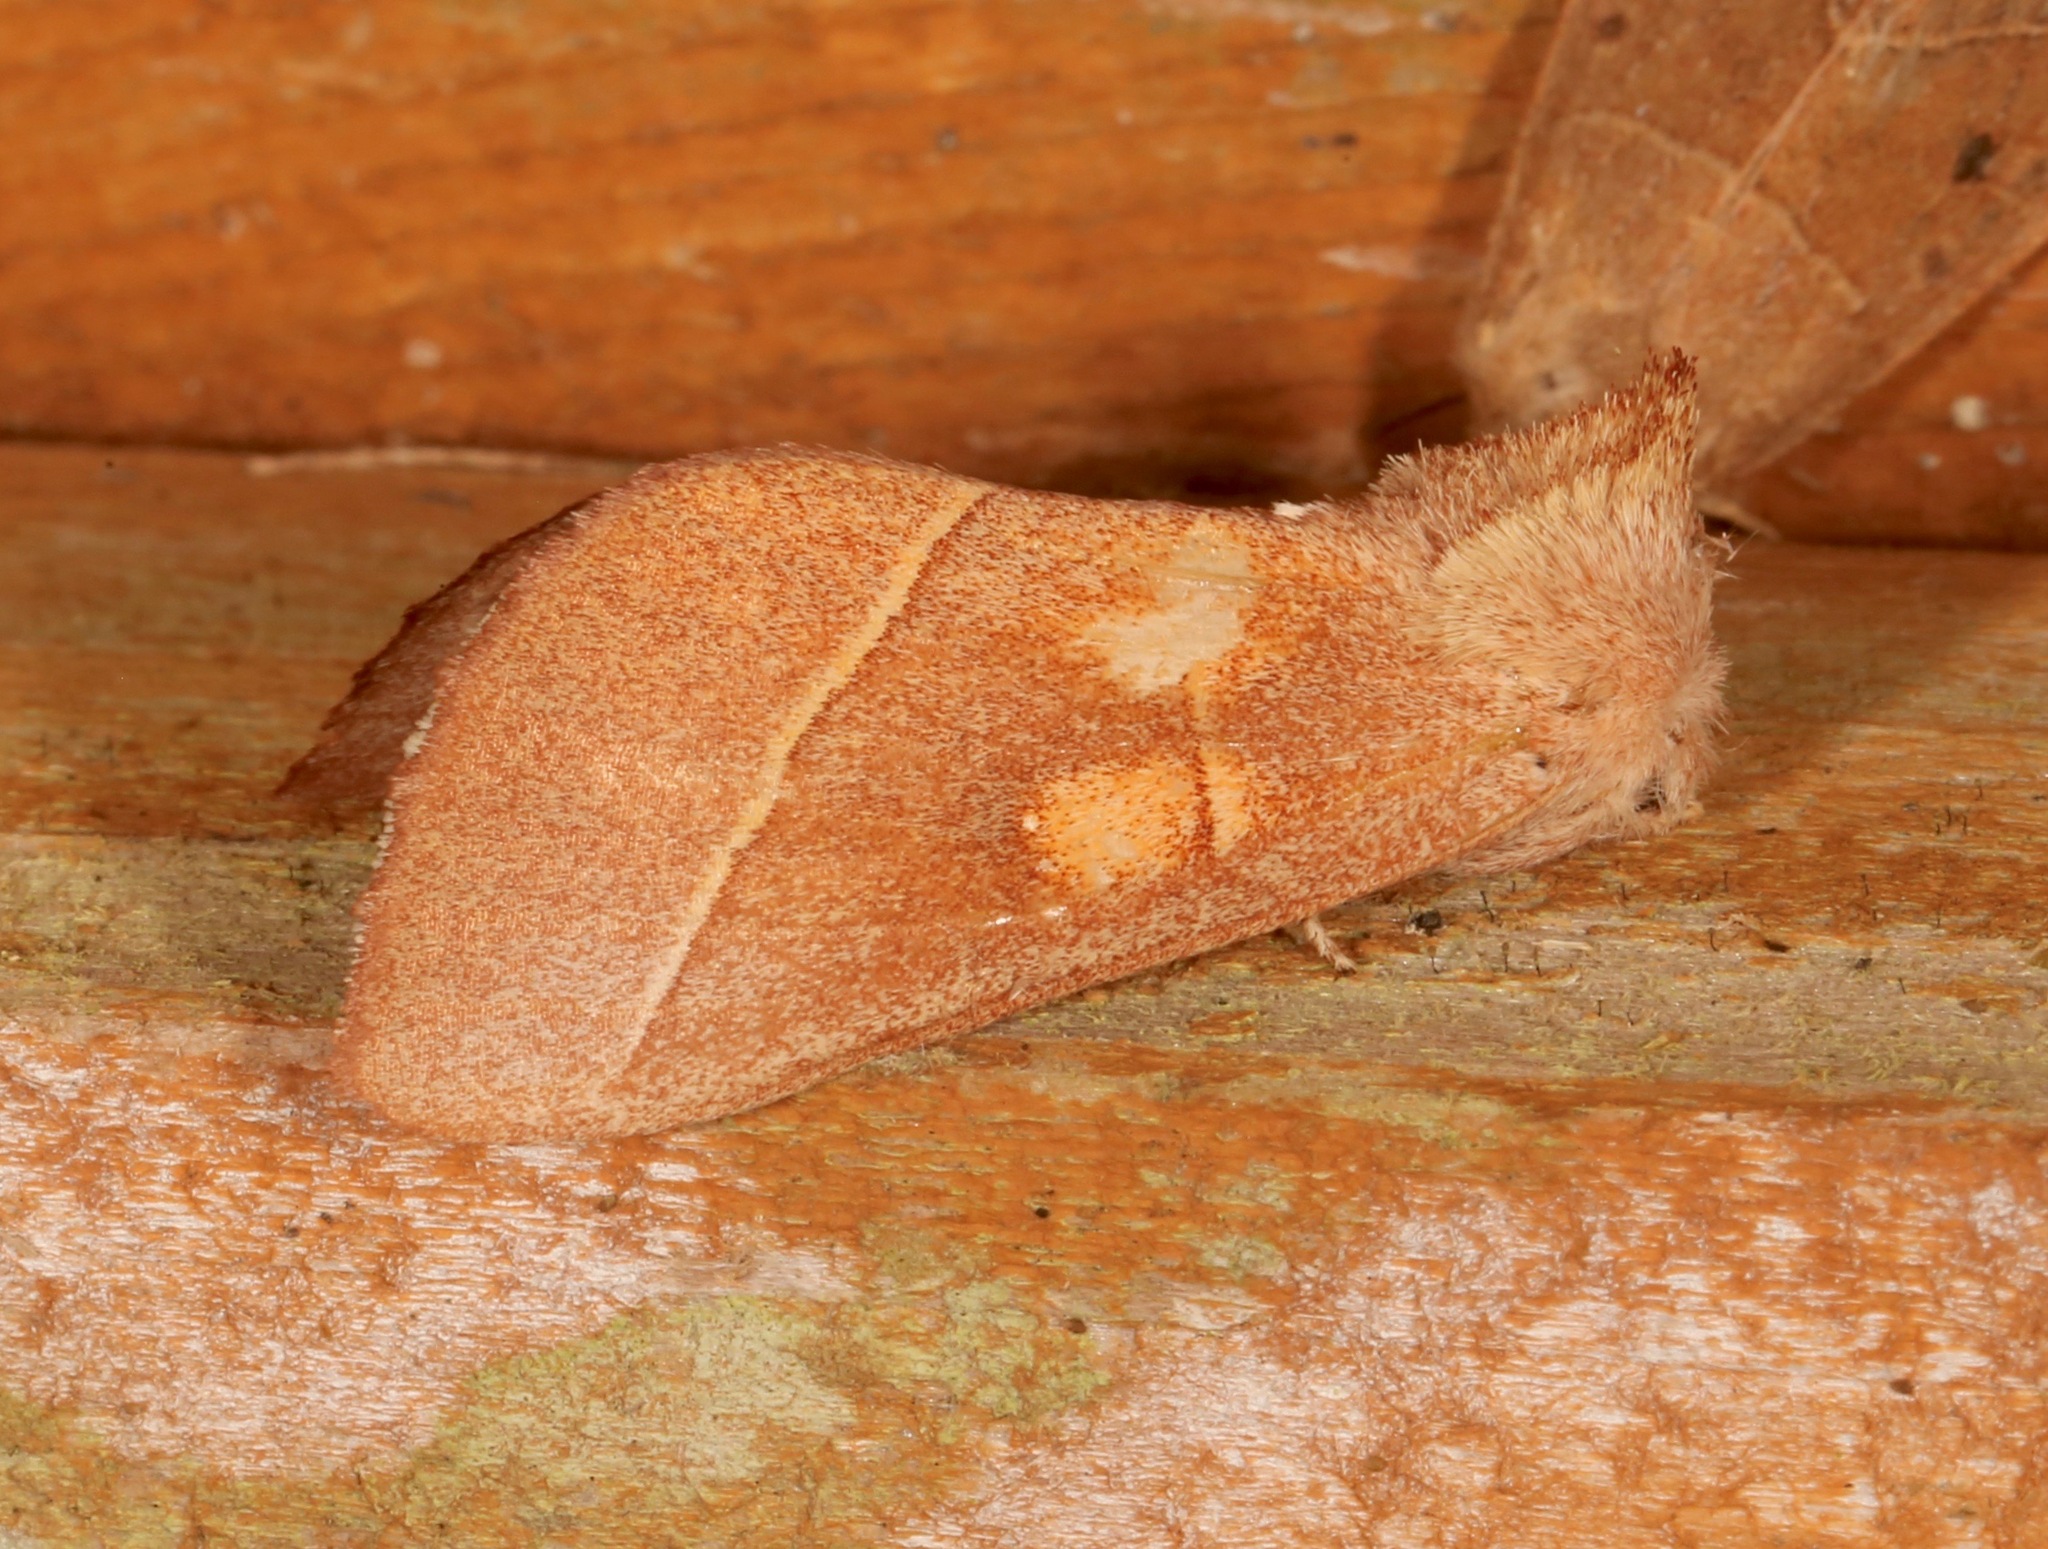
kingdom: Animalia
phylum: Arthropoda
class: Insecta
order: Lepidoptera
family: Notodontidae
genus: Nadata
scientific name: Nadata gibbosa
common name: White-dotted prominent
